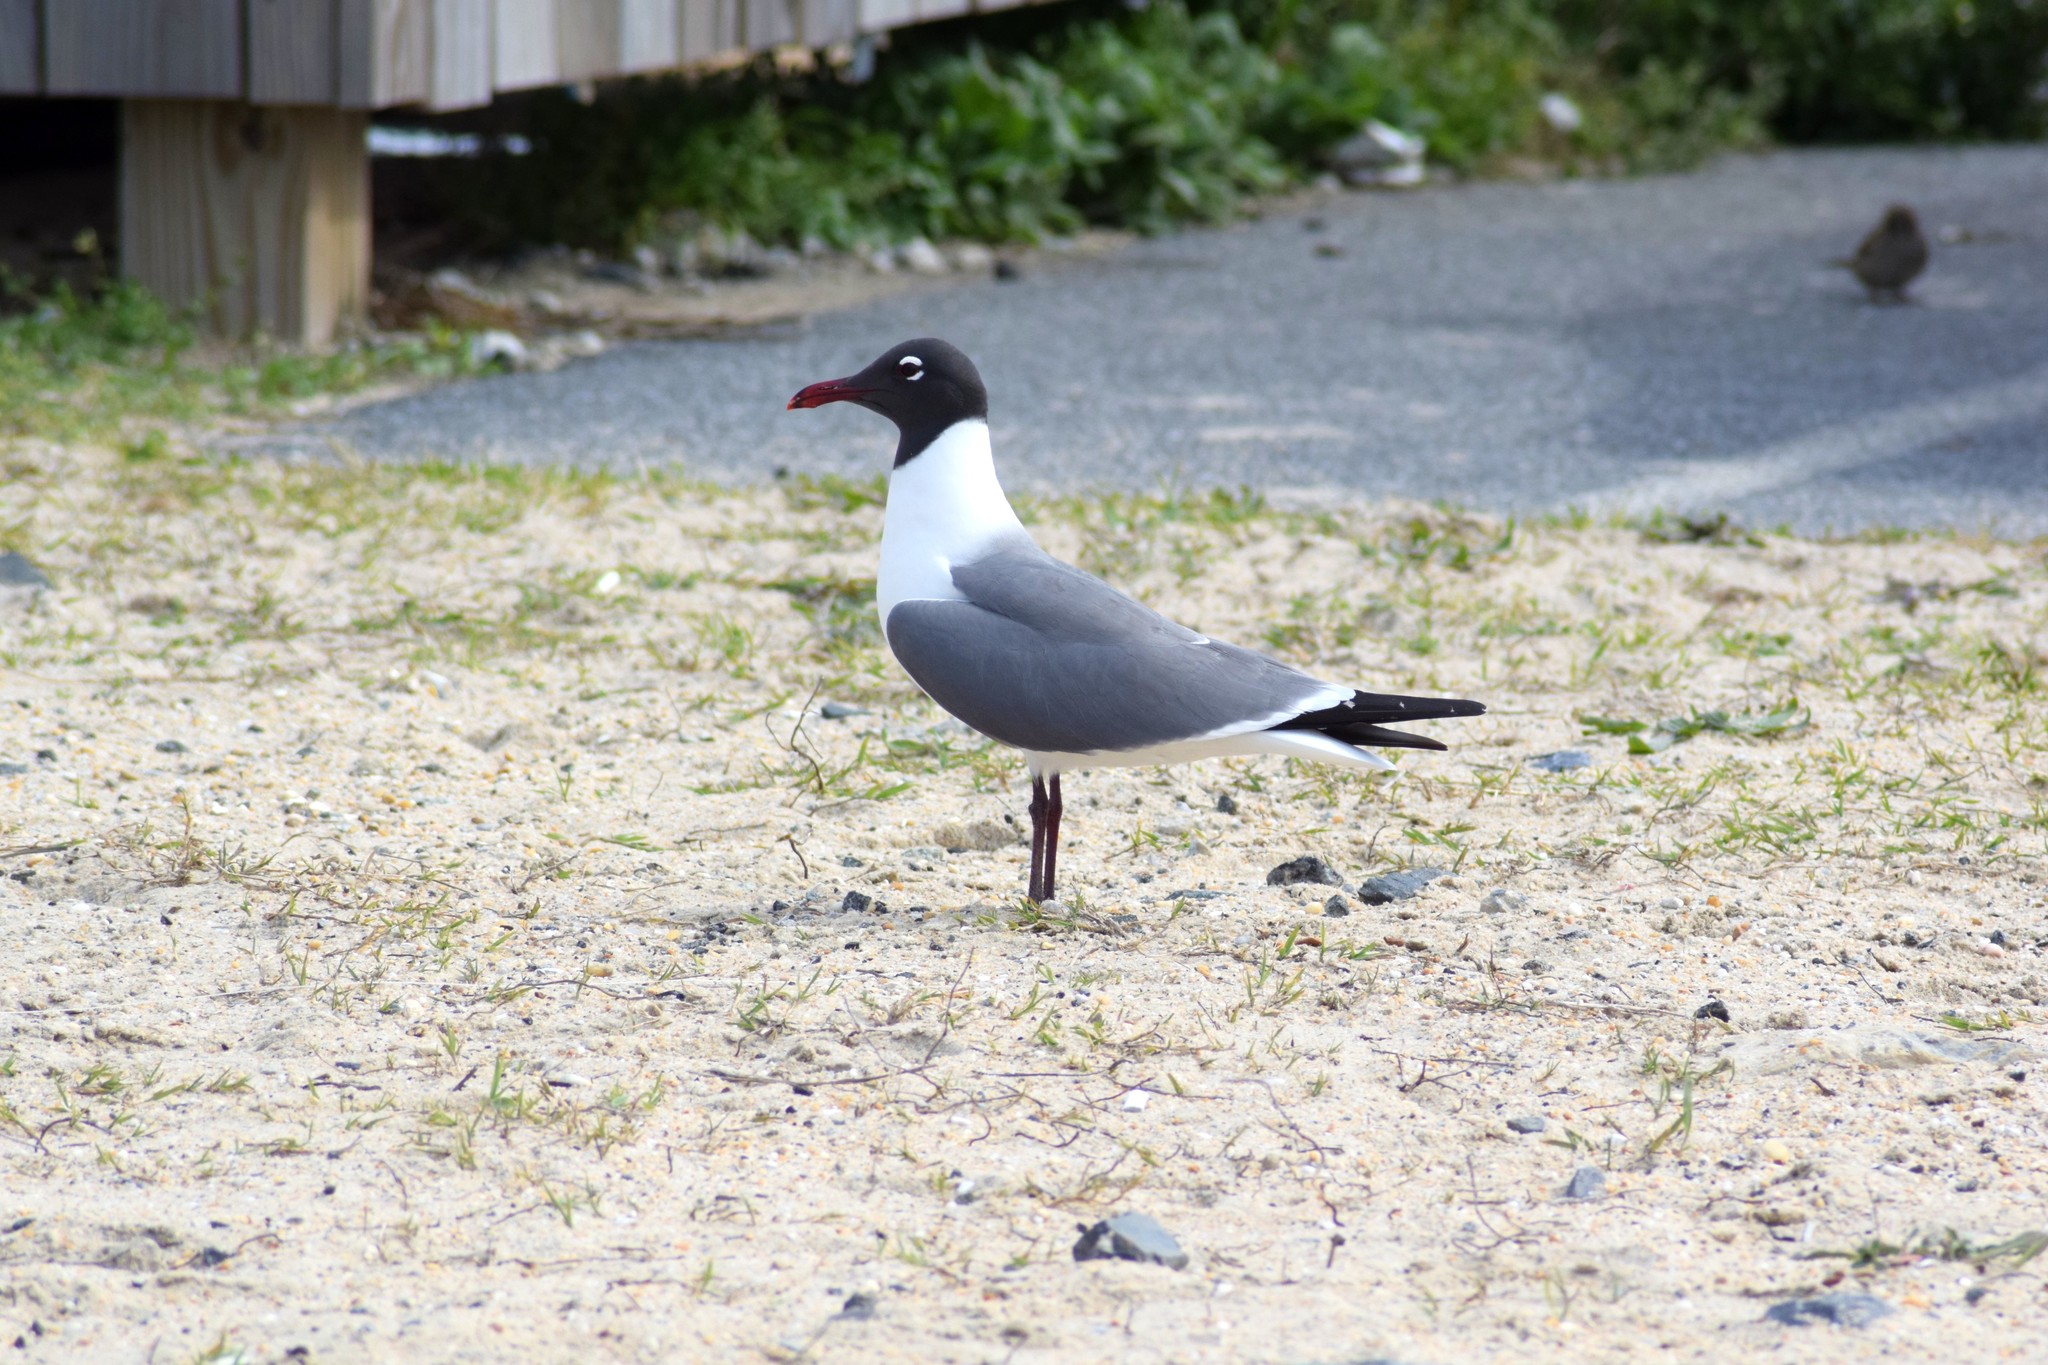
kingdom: Animalia
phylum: Chordata
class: Aves
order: Charadriiformes
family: Laridae
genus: Leucophaeus
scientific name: Leucophaeus atricilla
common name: Laughing gull
